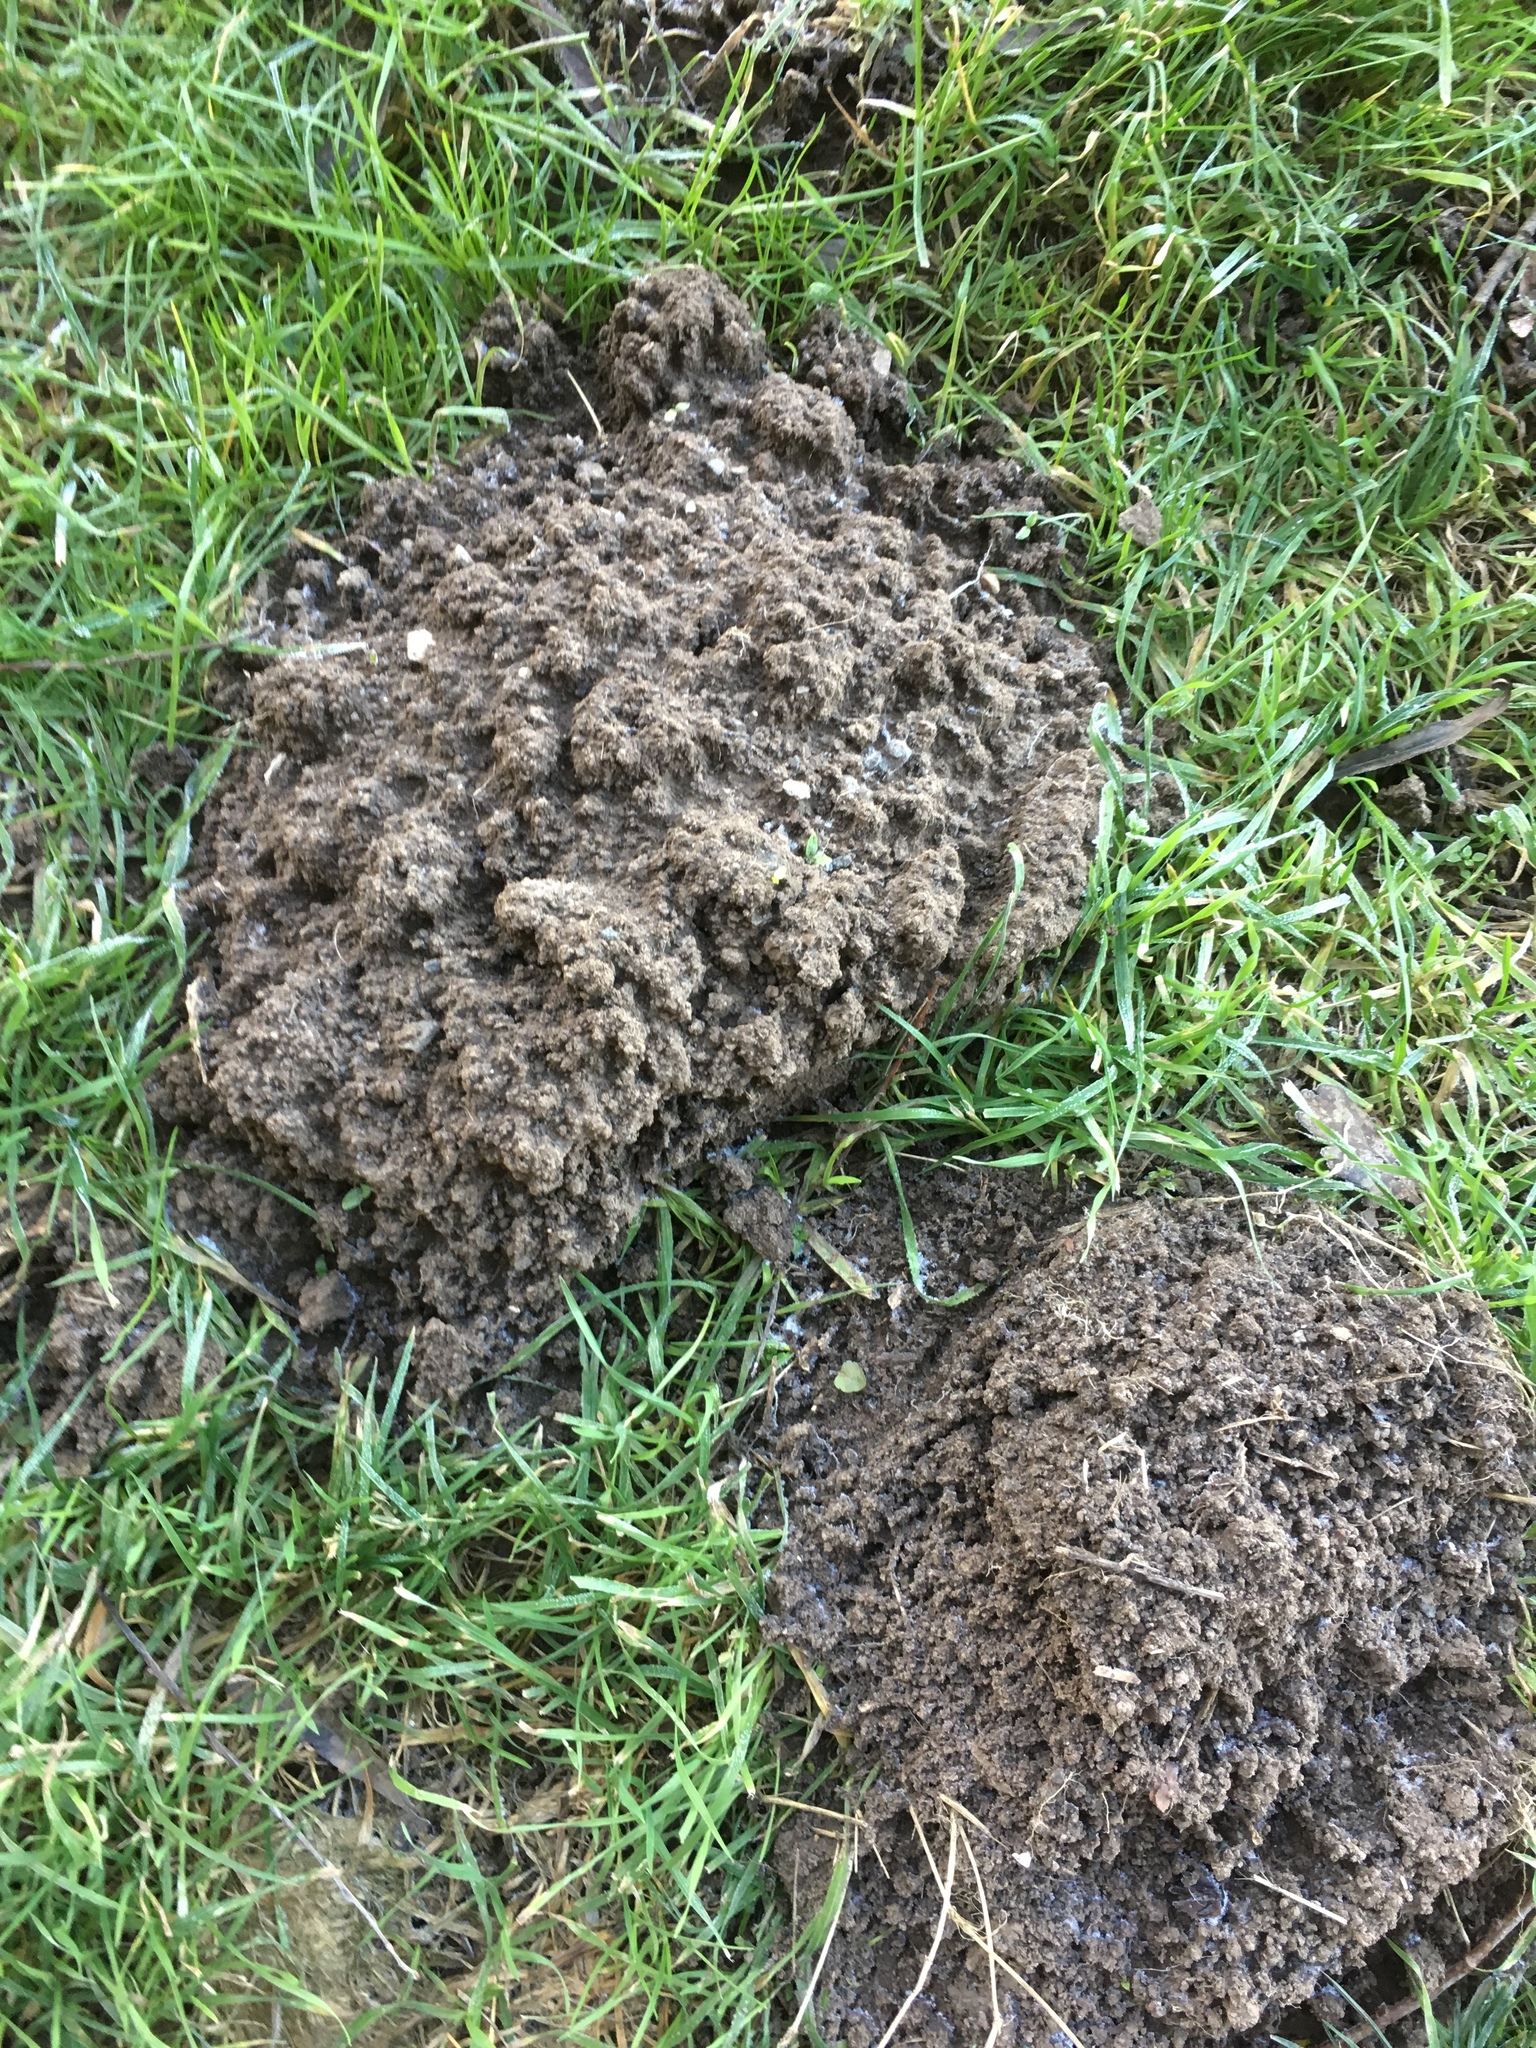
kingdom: Animalia
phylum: Chordata
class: Mammalia
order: Soricomorpha
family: Talpidae
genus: Talpa
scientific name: Talpa europaea
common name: European mole
